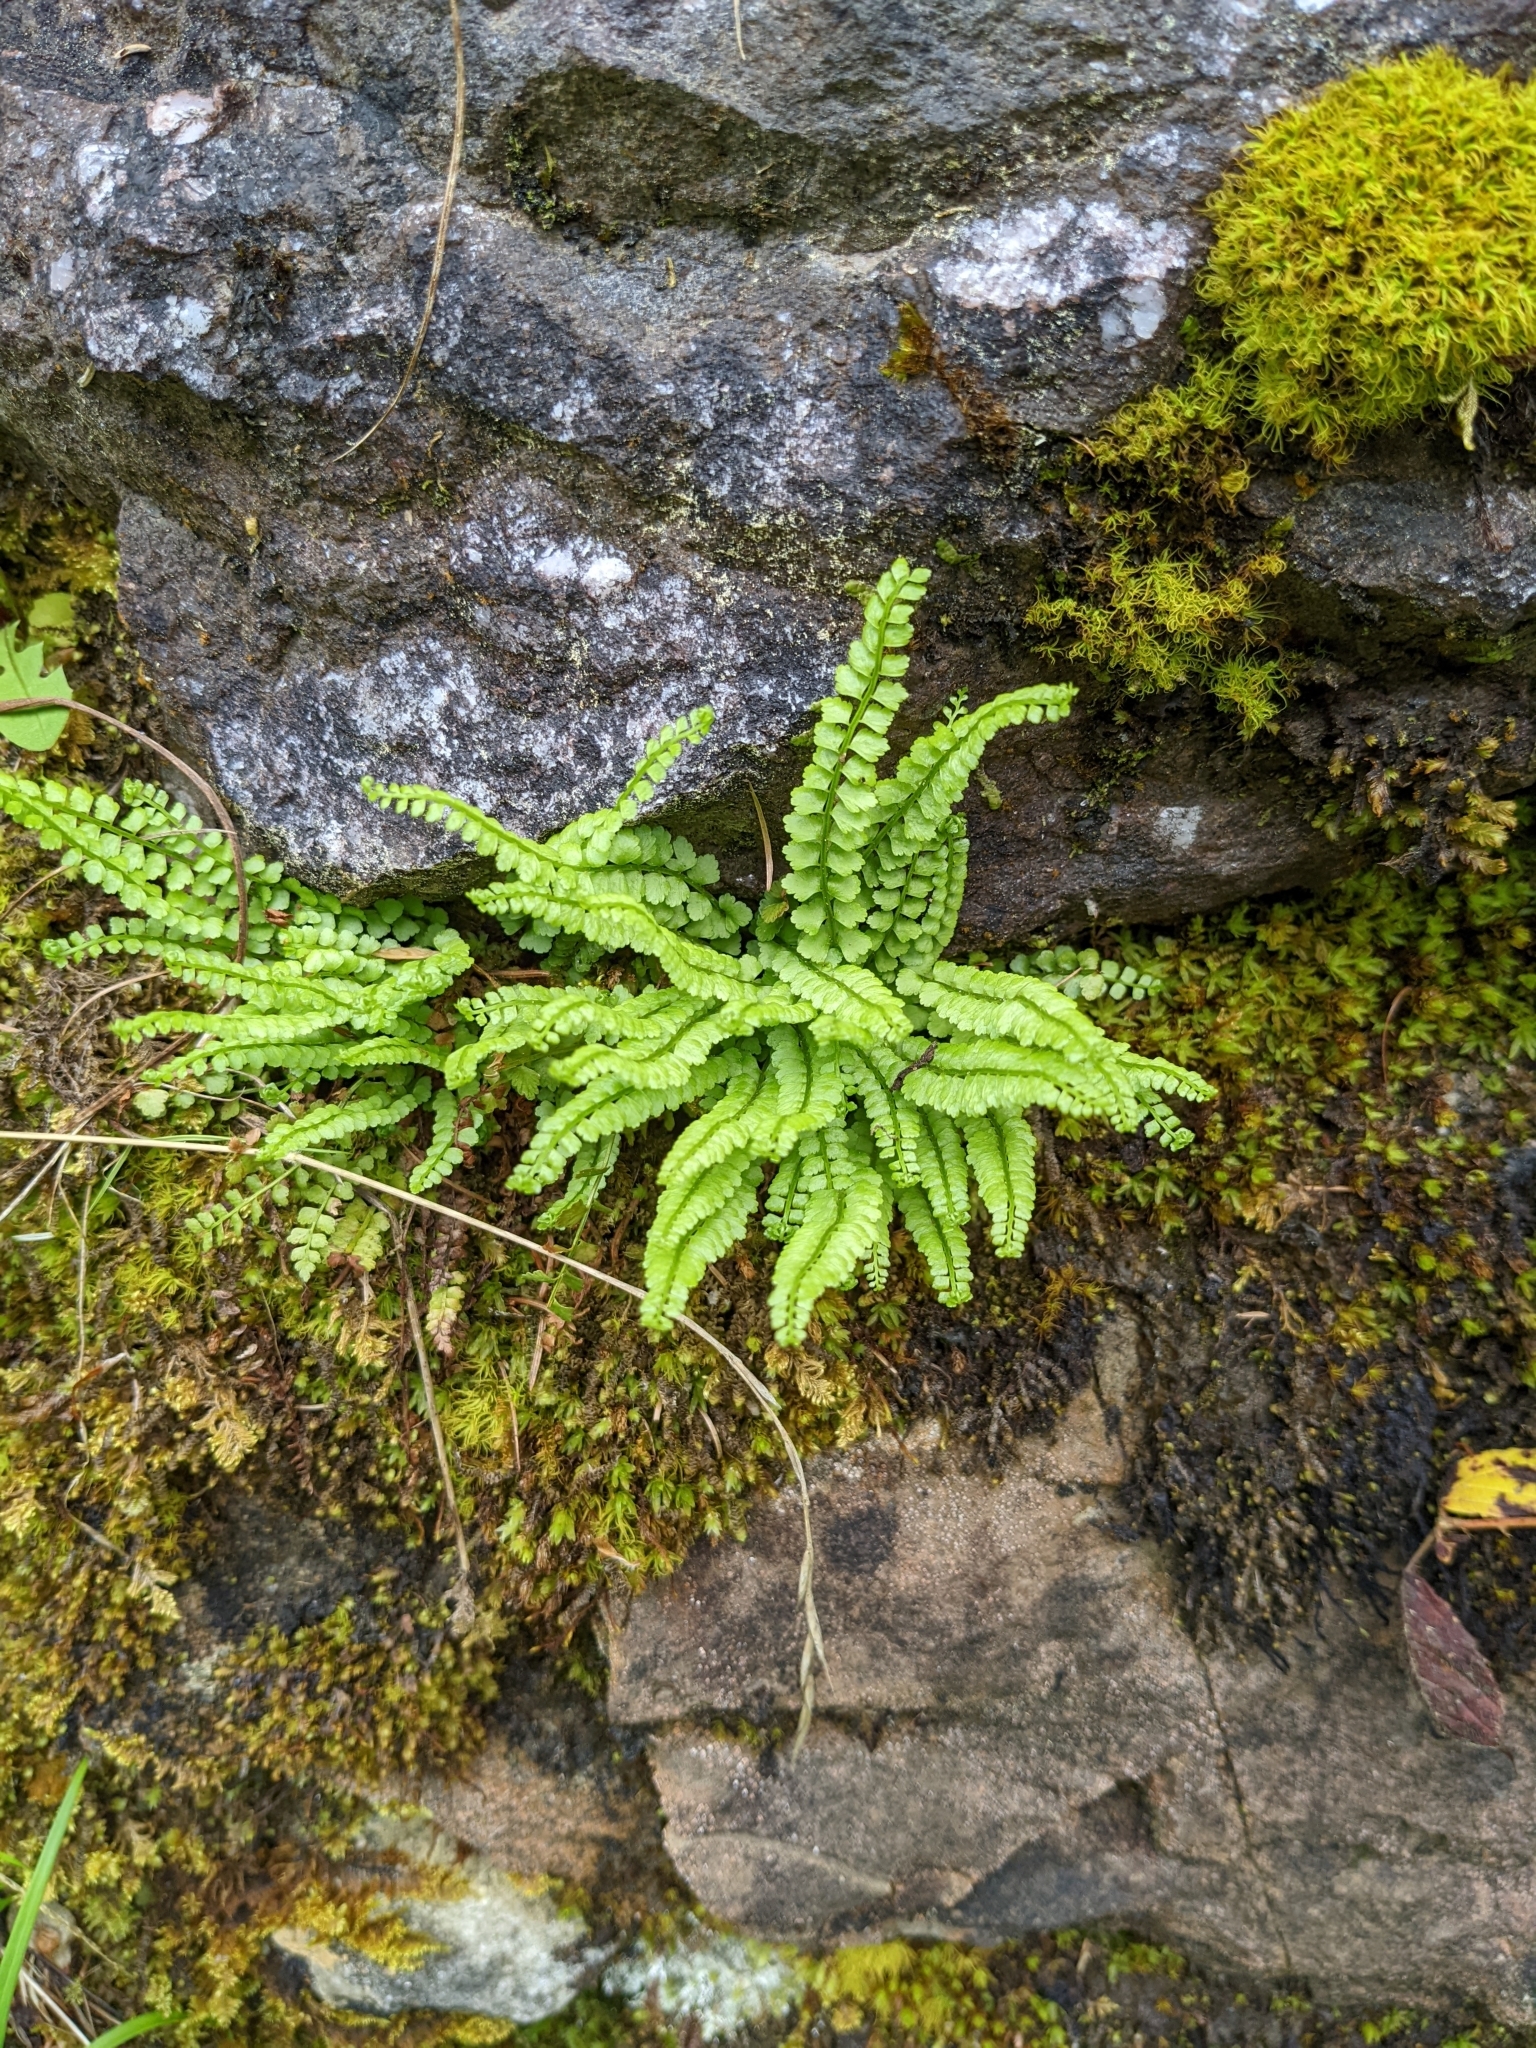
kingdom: Plantae
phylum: Tracheophyta
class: Polypodiopsida
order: Polypodiales
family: Aspleniaceae
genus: Asplenium
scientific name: Asplenium viride
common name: Green spleenwort
